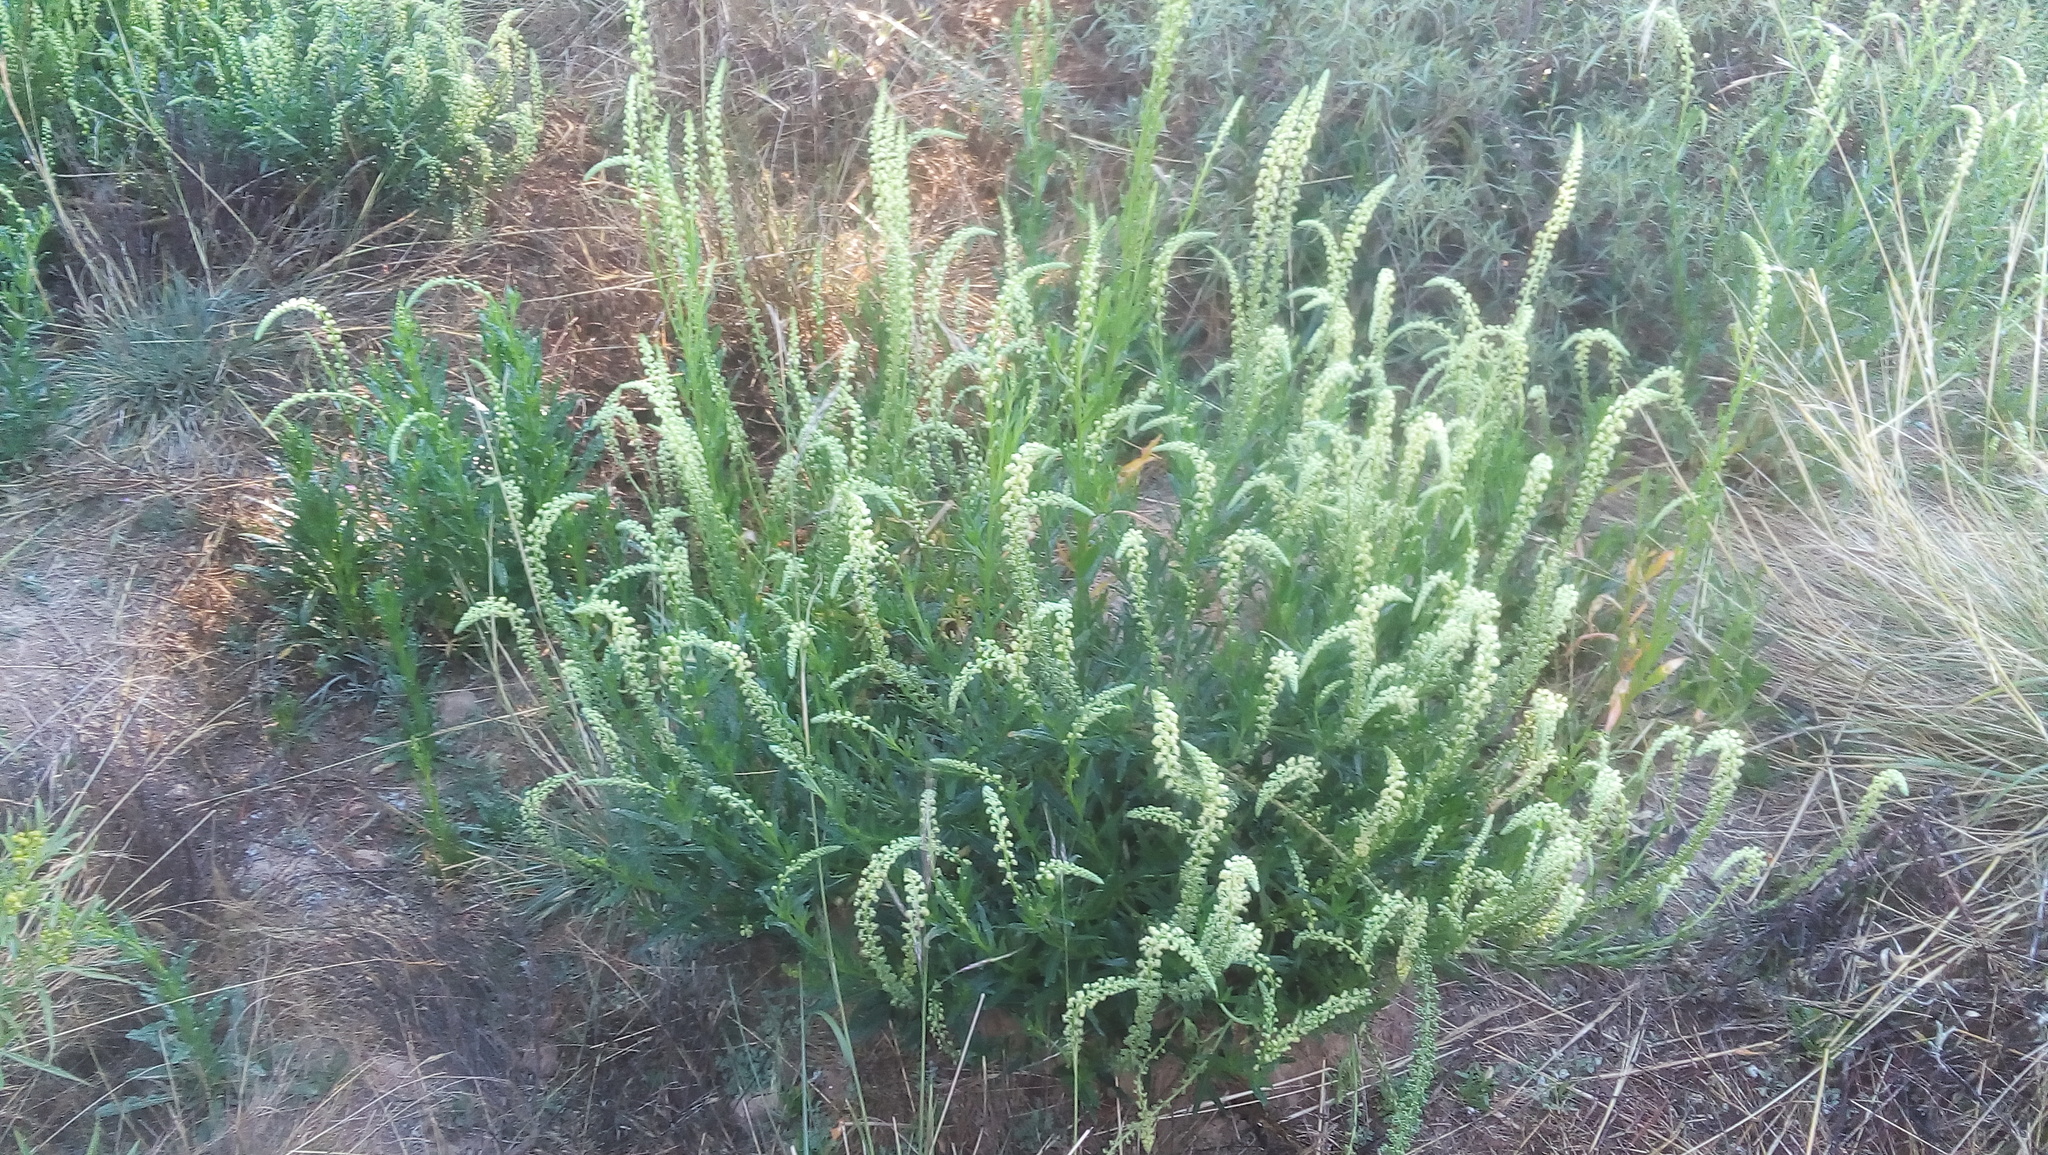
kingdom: Plantae
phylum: Tracheophyta
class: Magnoliopsida
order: Brassicales
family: Resedaceae
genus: Reseda
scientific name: Reseda luteola
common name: Weld
